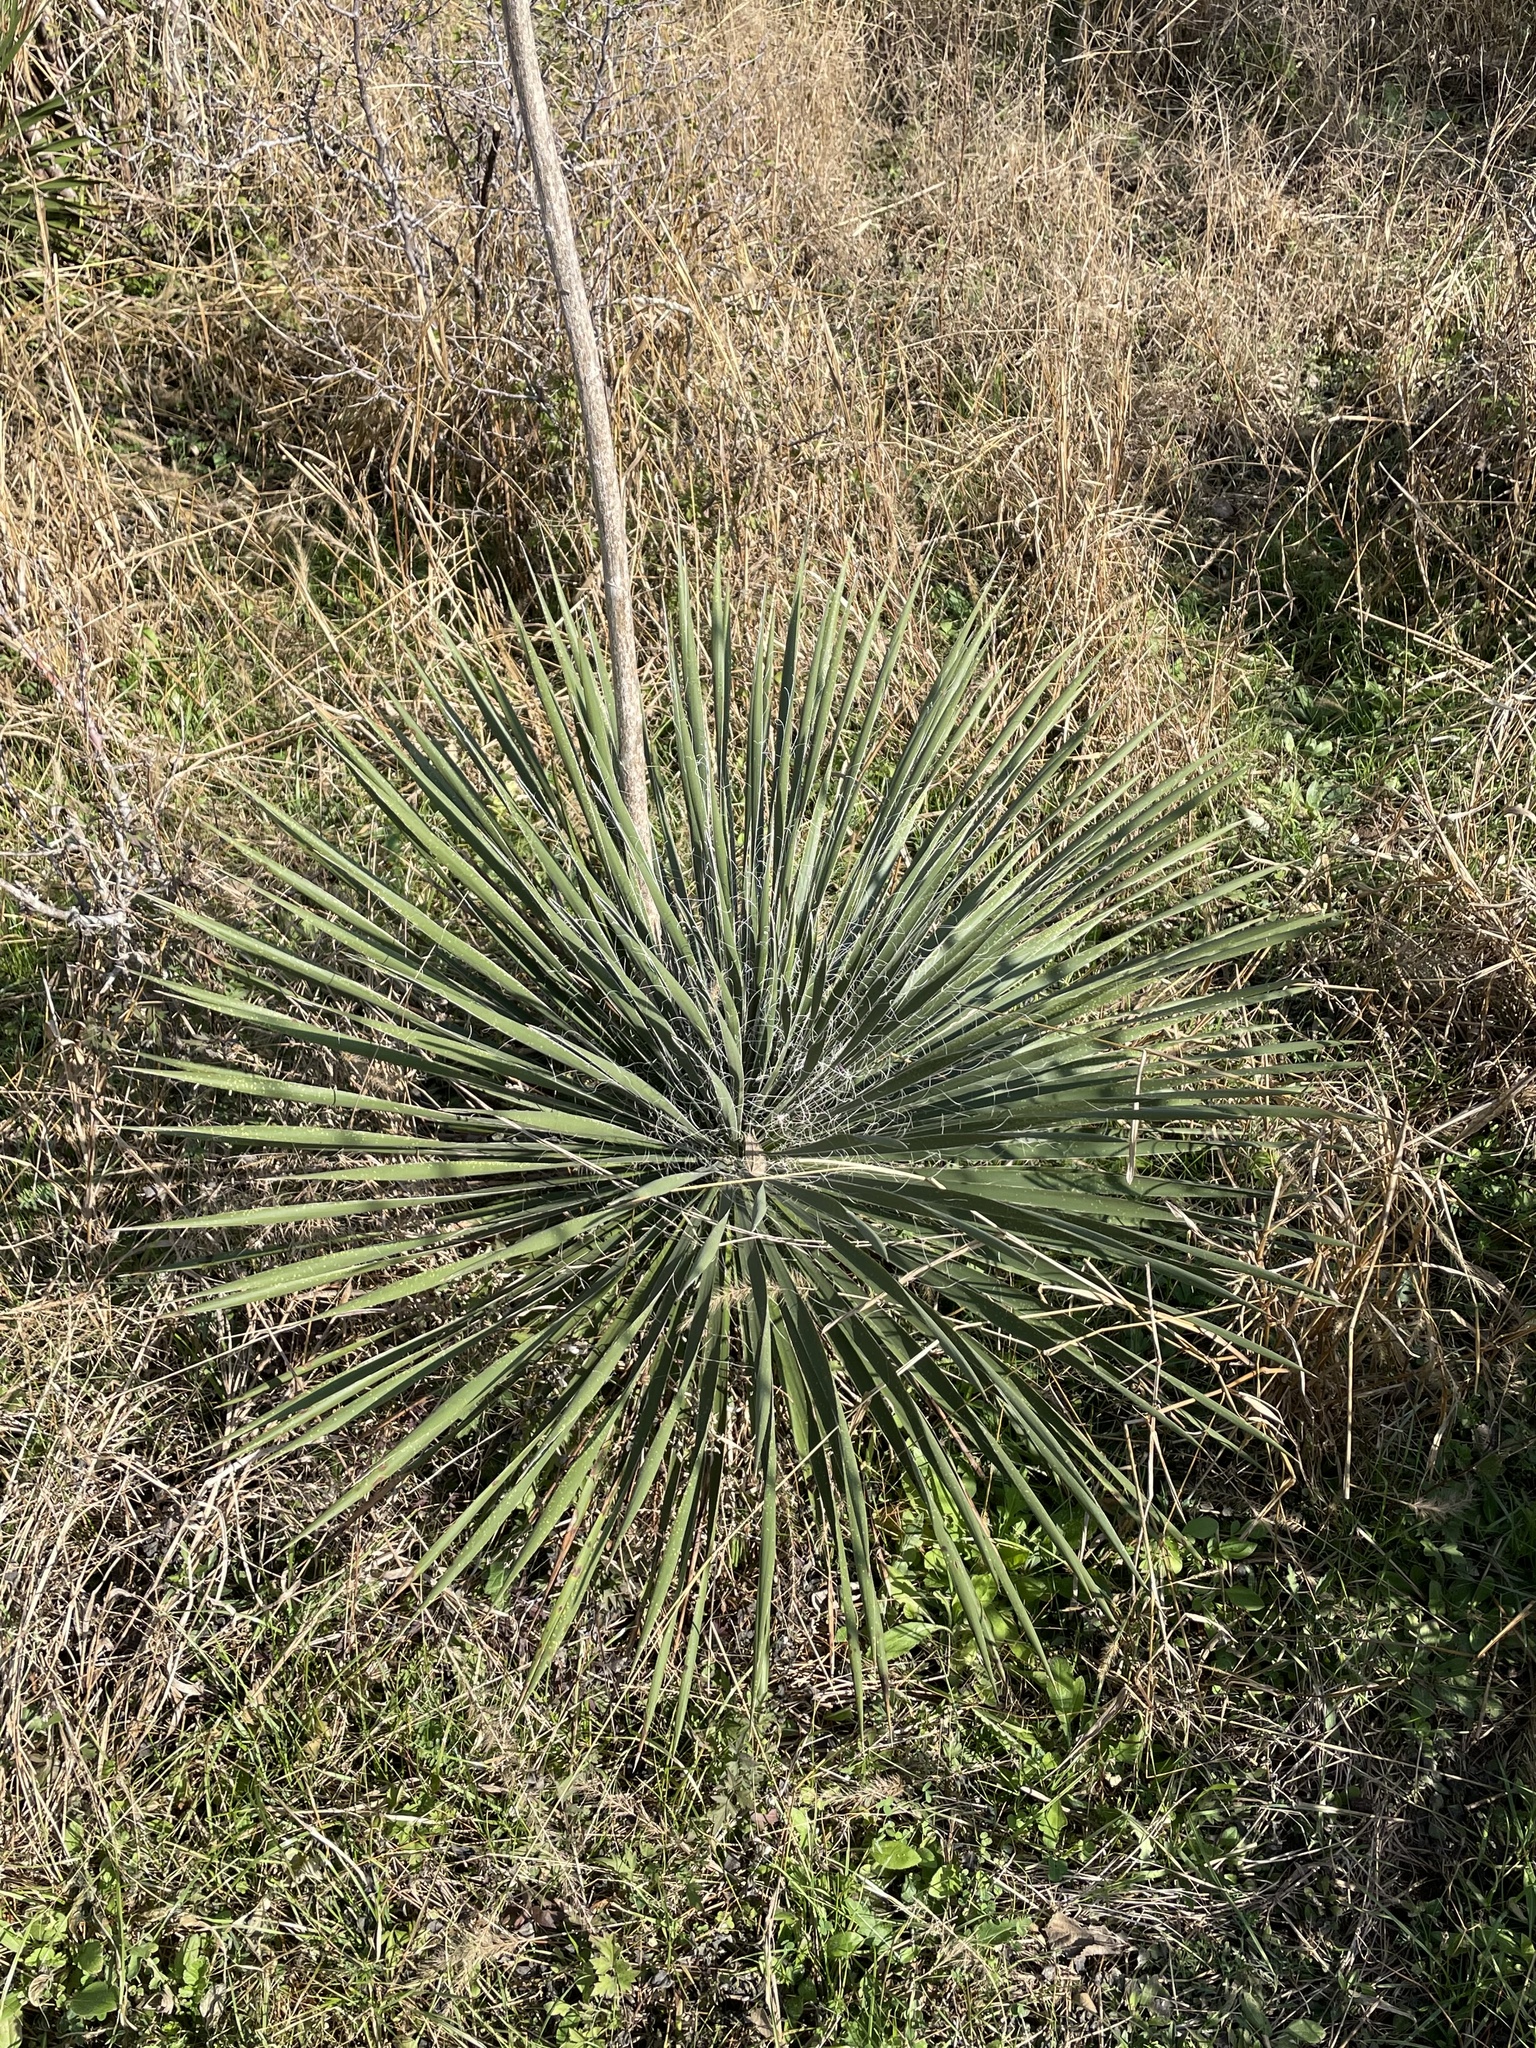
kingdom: Plantae
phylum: Tracheophyta
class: Liliopsida
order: Asparagales
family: Asparagaceae
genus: Yucca
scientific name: Yucca constricta
